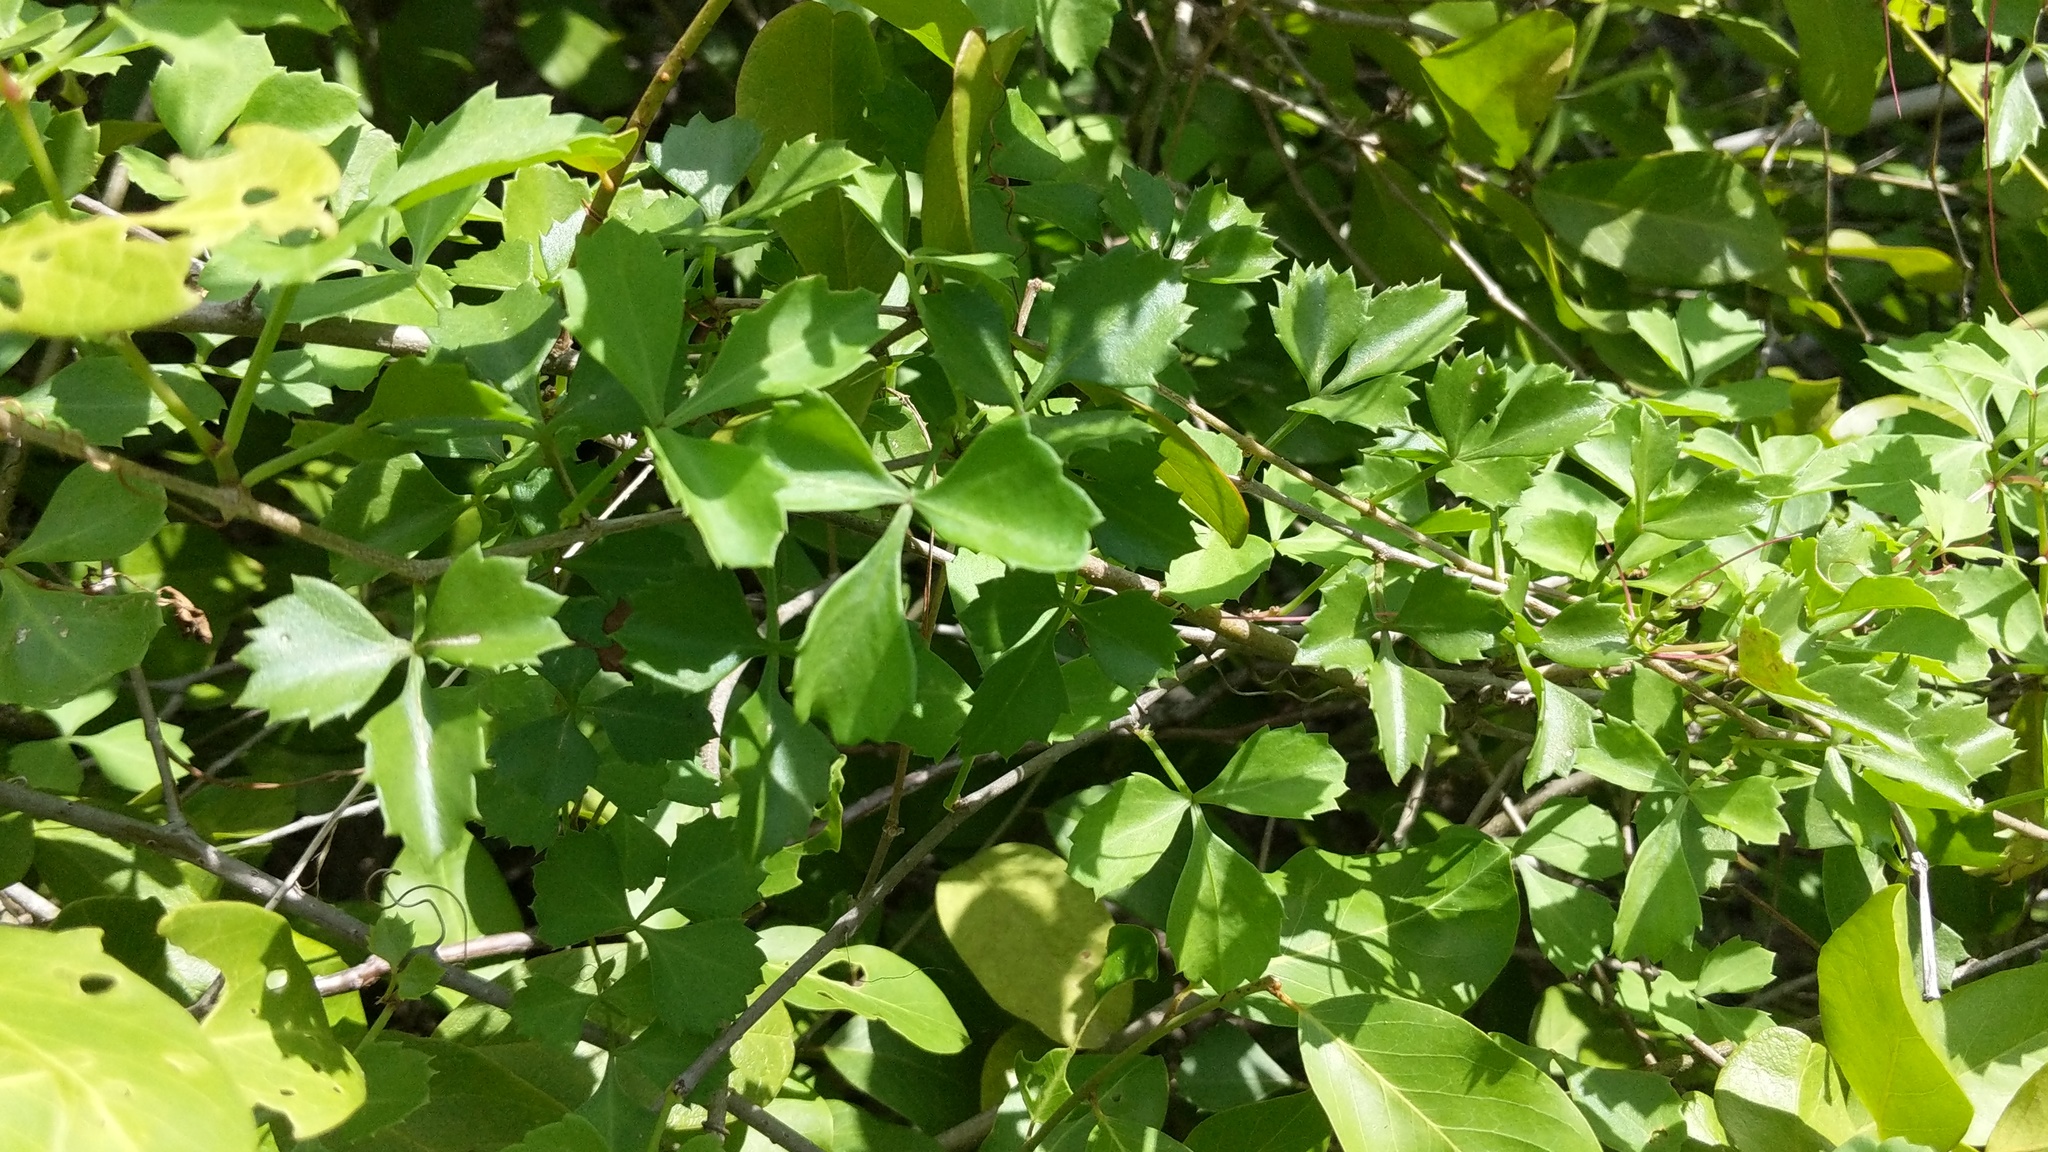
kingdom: Plantae
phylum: Tracheophyta
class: Magnoliopsida
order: Vitales
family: Vitaceae
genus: Cissus
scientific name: Cissus trifoliata
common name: Vine-sorrel
